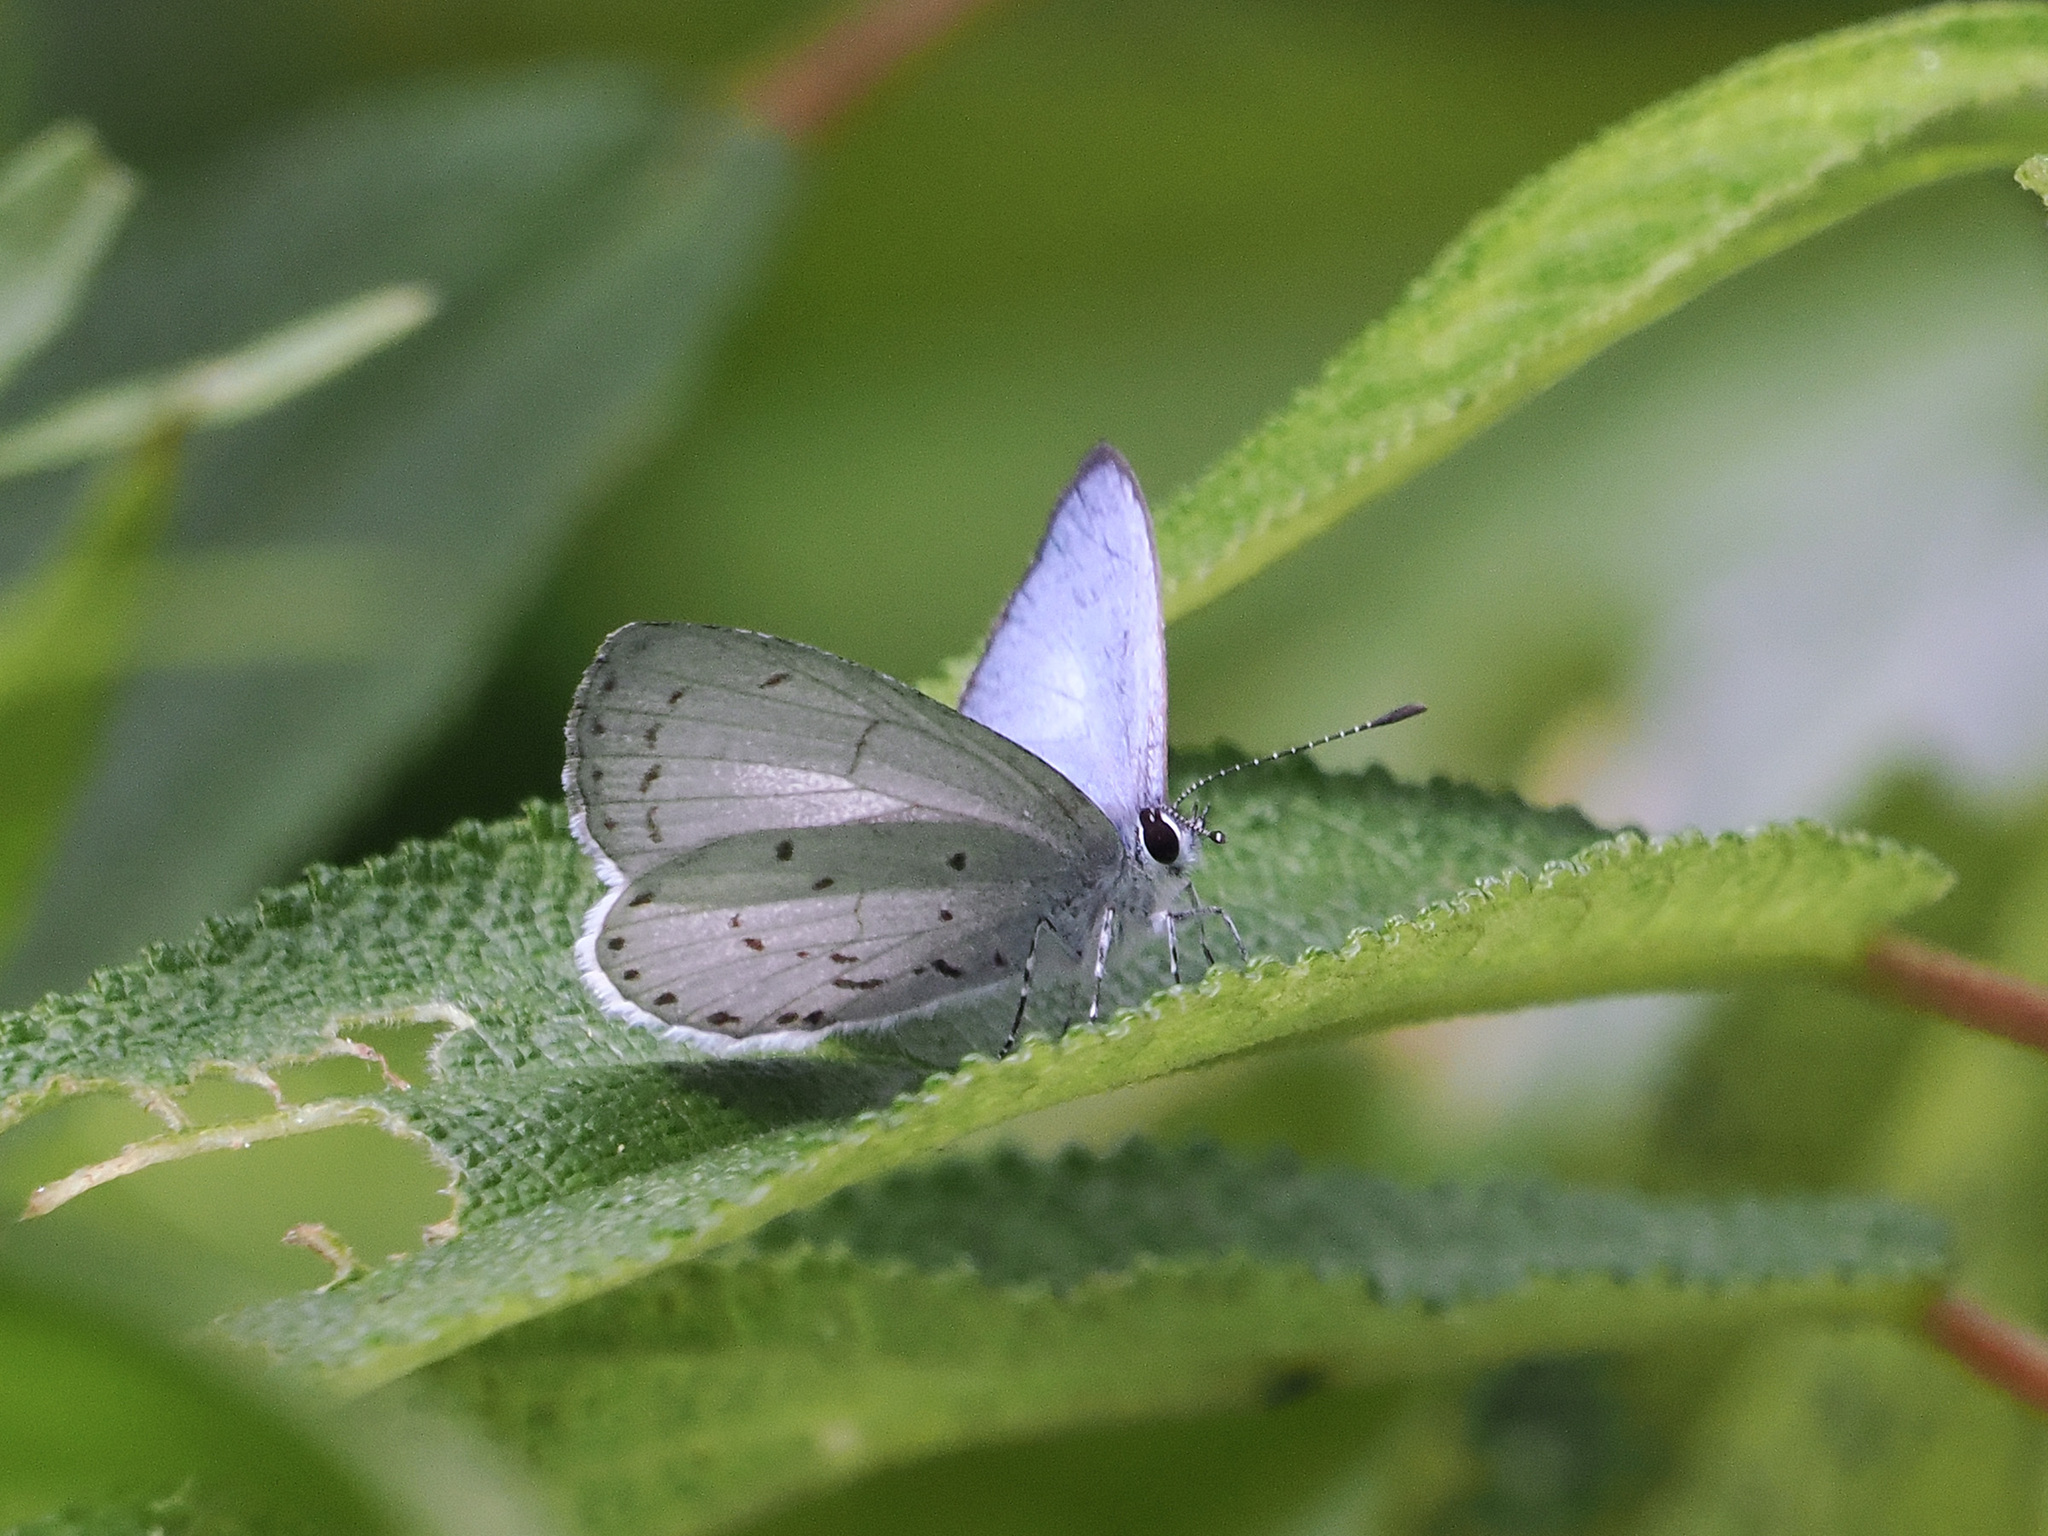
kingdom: Animalia
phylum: Arthropoda
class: Insecta
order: Lepidoptera
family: Lycaenidae
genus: Udara
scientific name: Udara toxopeusi
